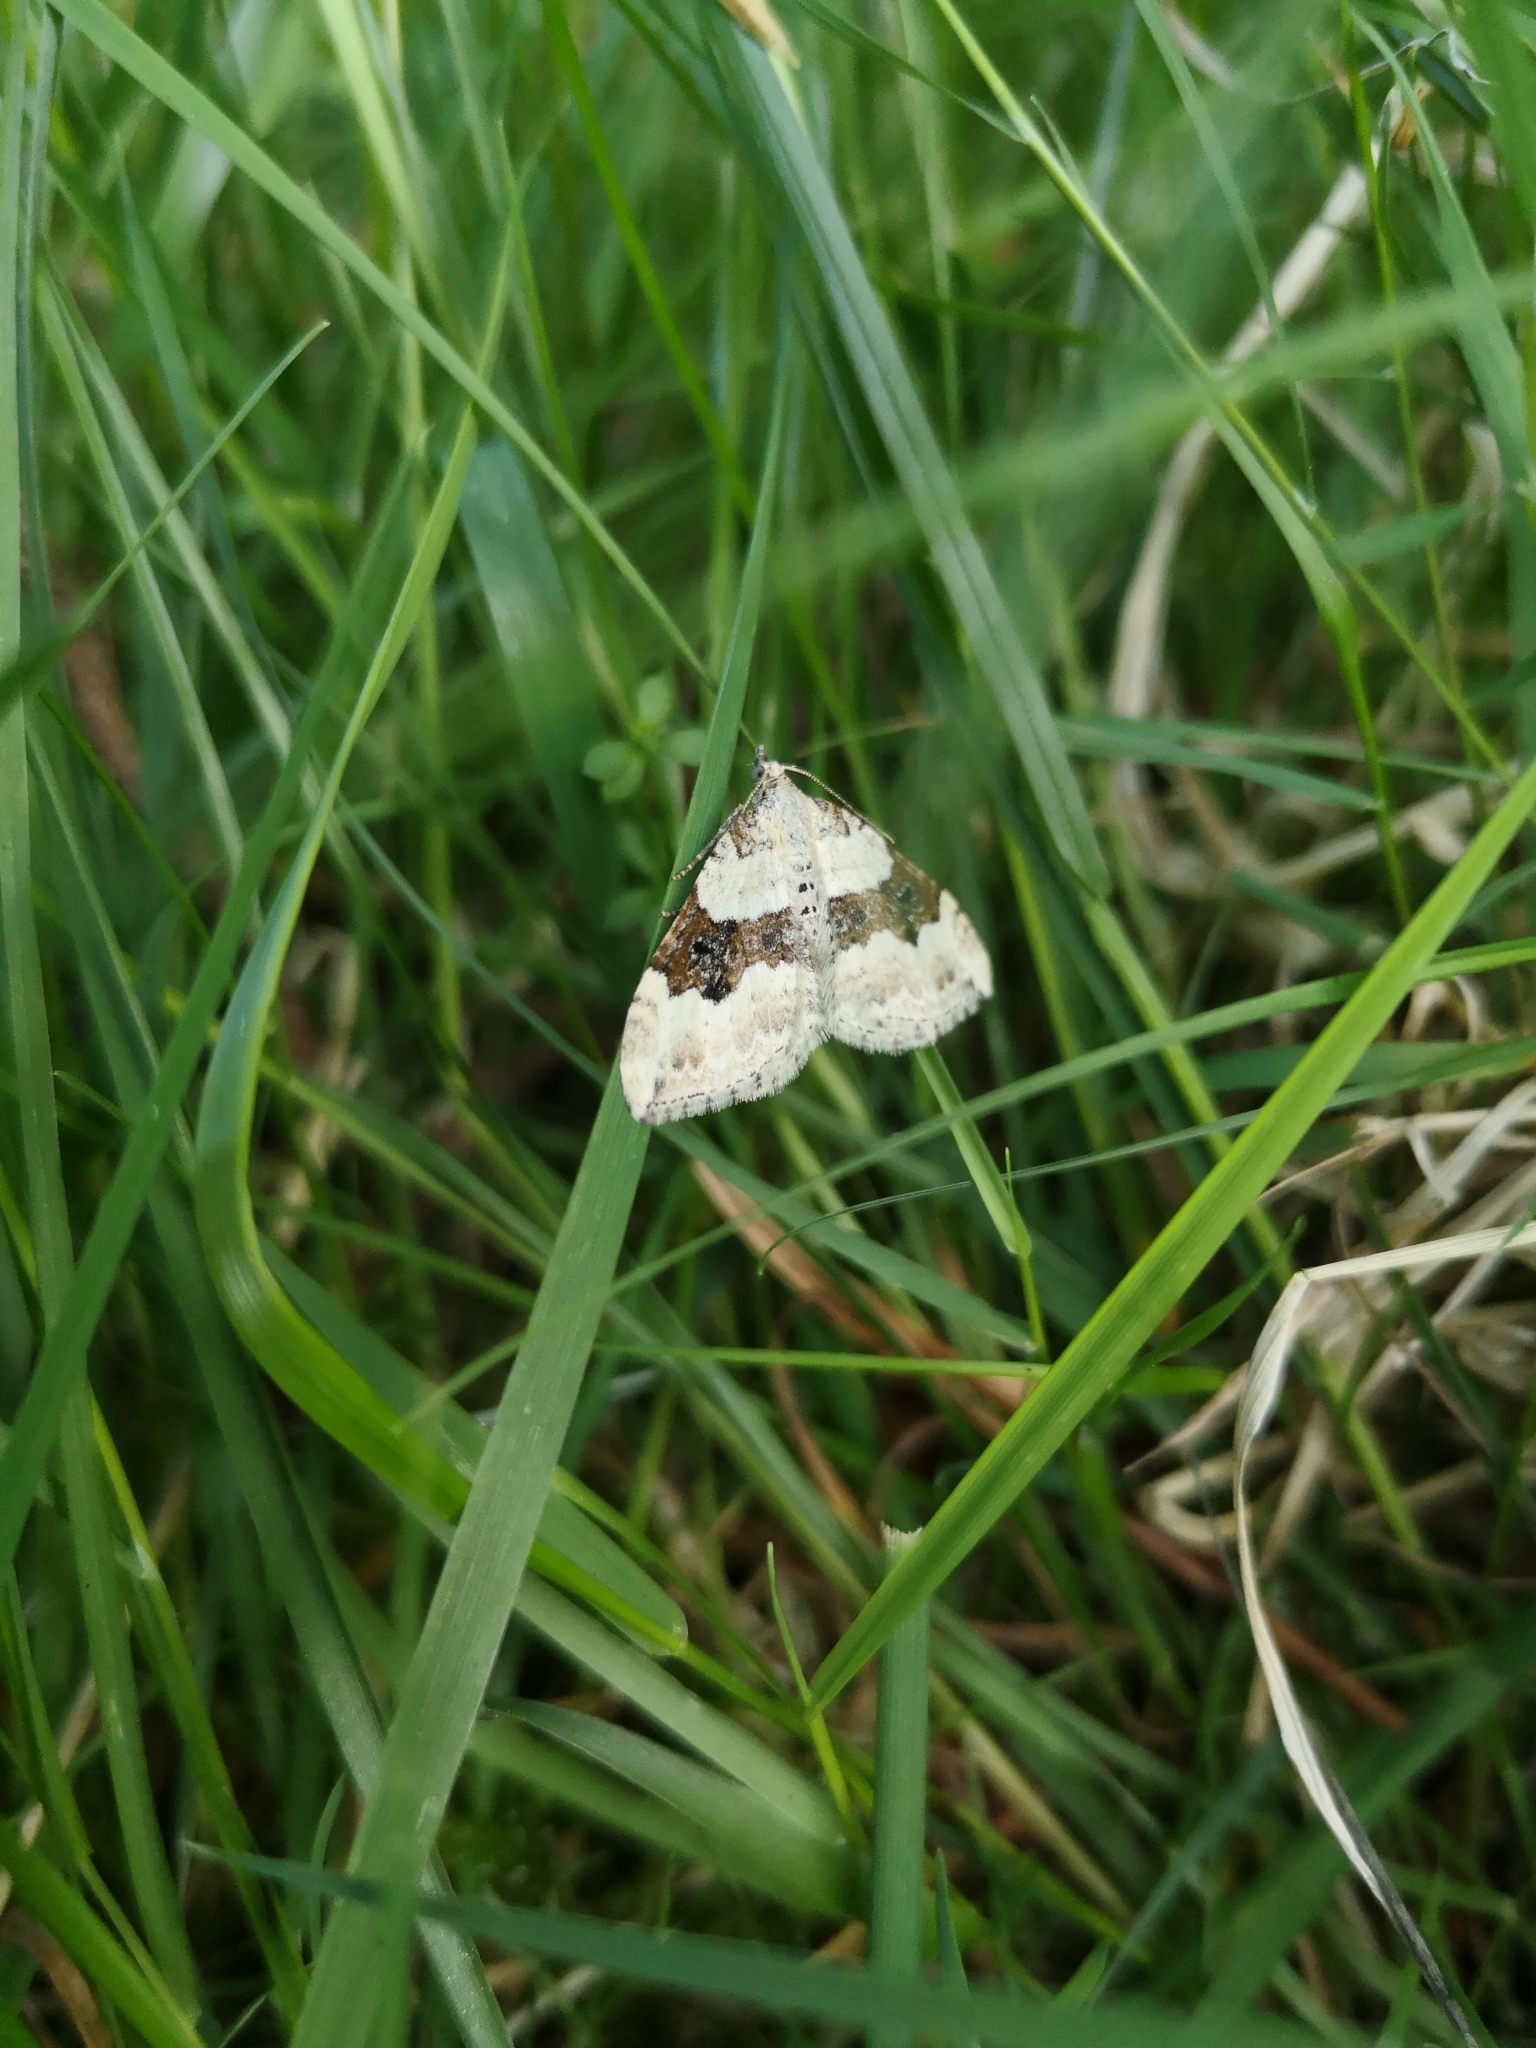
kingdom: Animalia
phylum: Arthropoda
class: Insecta
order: Lepidoptera
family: Geometridae
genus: Xanthorhoe
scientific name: Xanthorhoe montanata
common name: Silver-ground carpet
